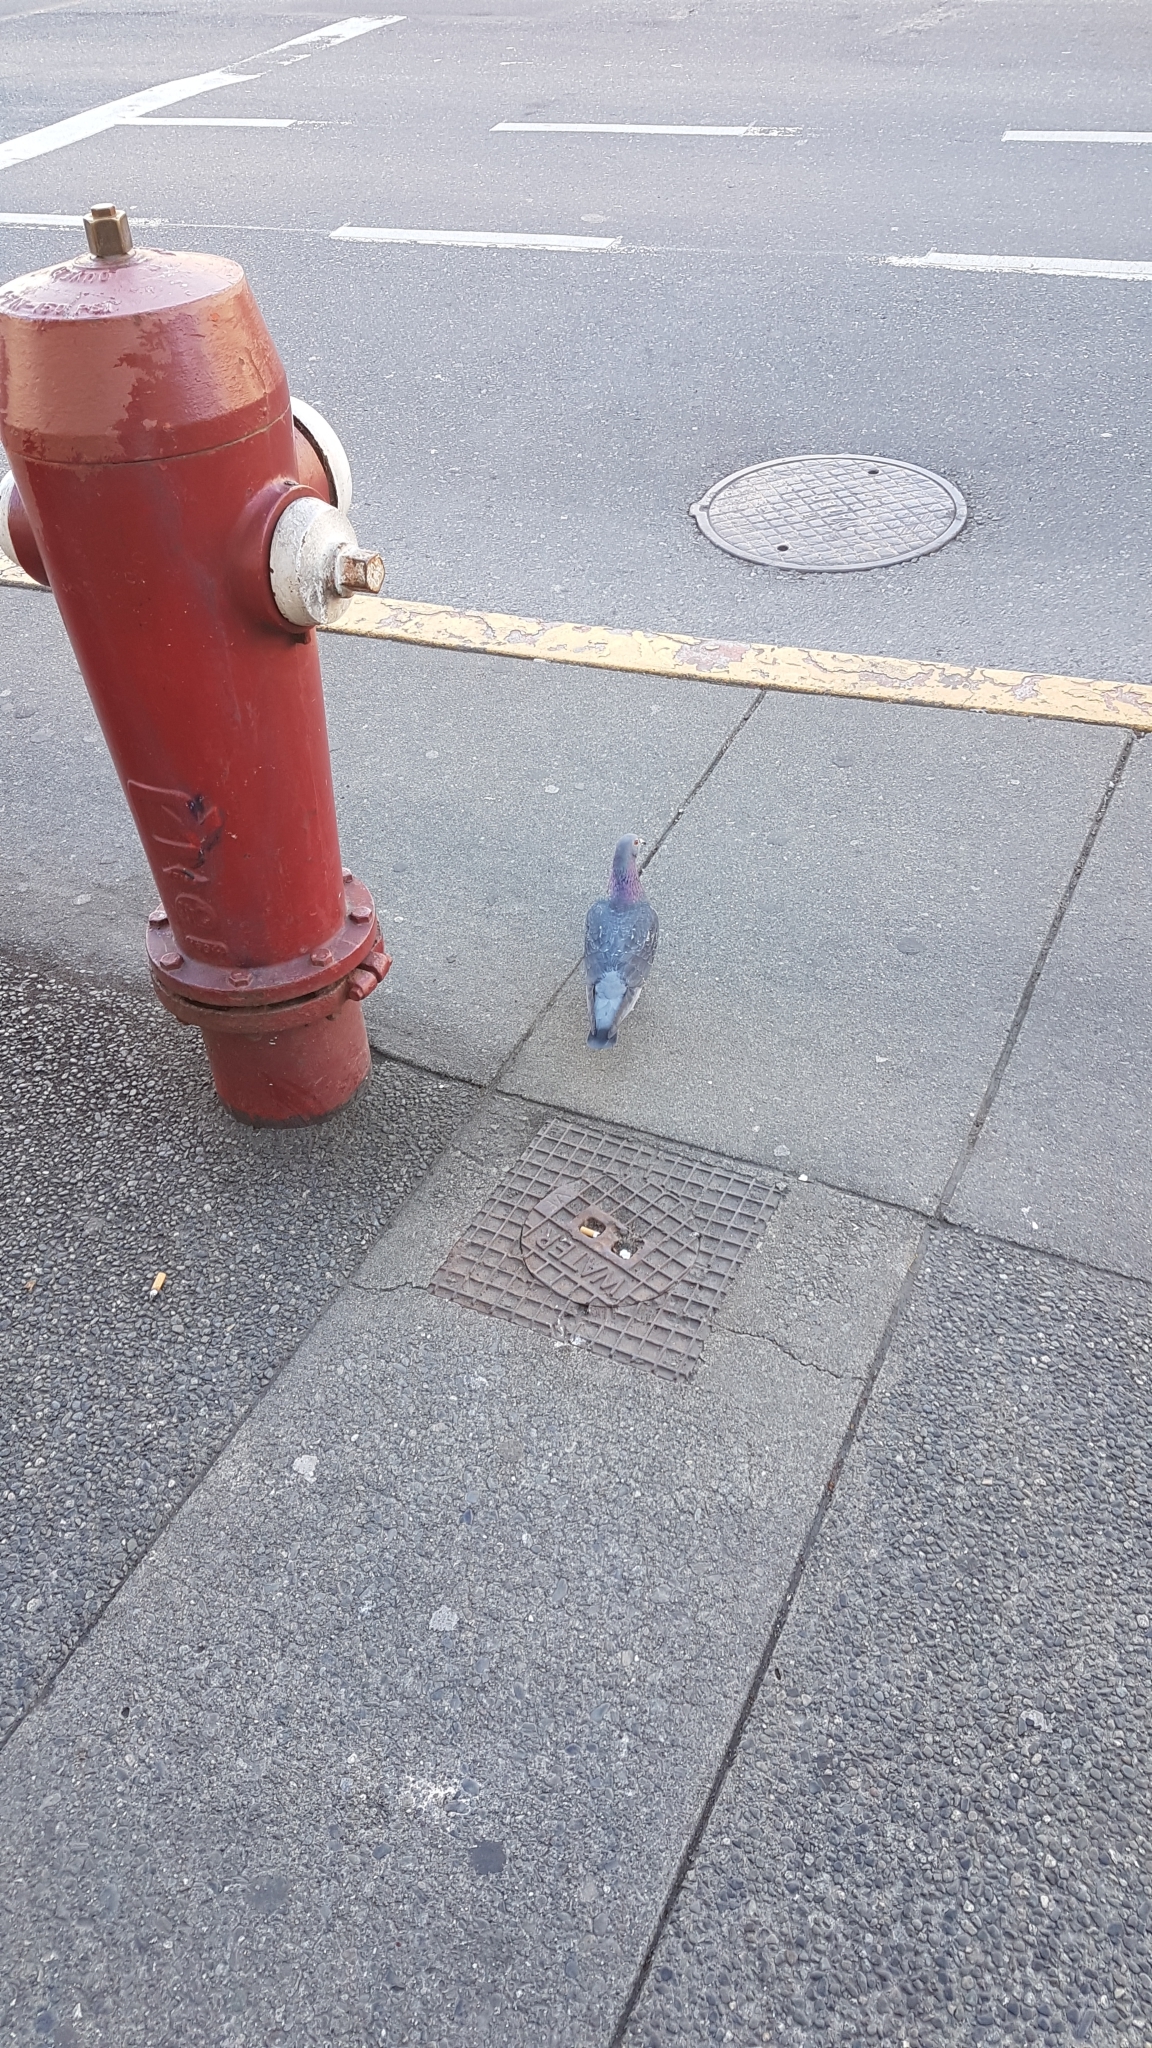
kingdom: Animalia
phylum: Chordata
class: Aves
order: Columbiformes
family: Columbidae
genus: Columba
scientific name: Columba livia
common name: Rock pigeon
